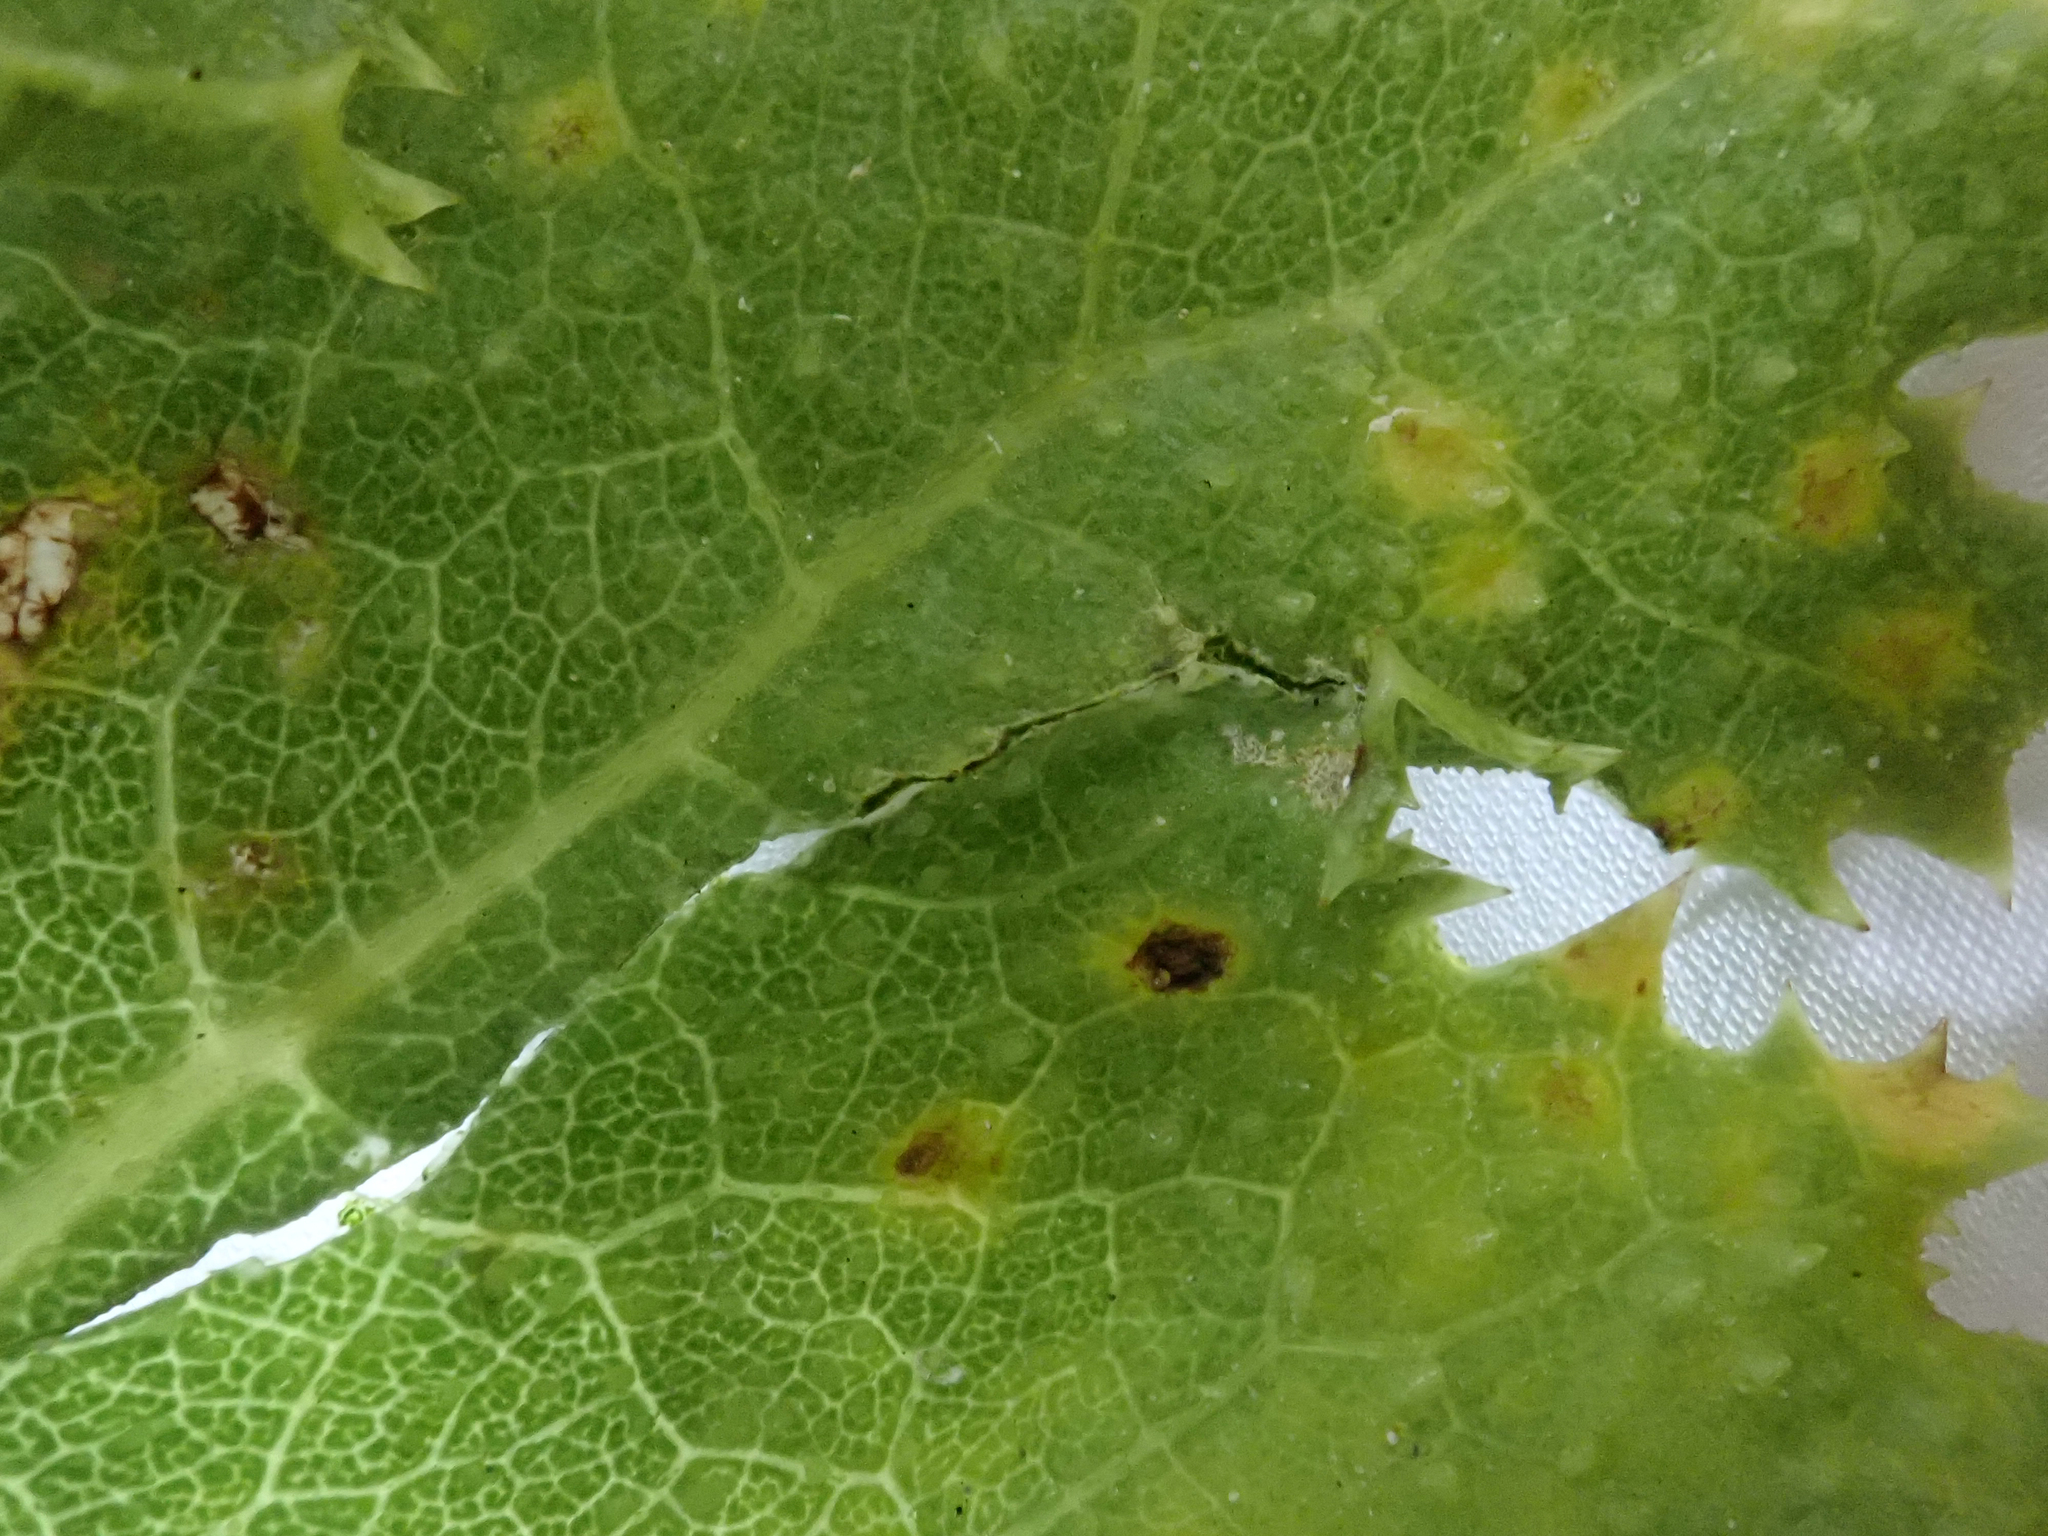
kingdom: Fungi
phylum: Basidiomycota
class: Pucciniomycetes
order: Pucciniales
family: Pucciniaceae
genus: Puccinia
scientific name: Puccinia embergeriae
